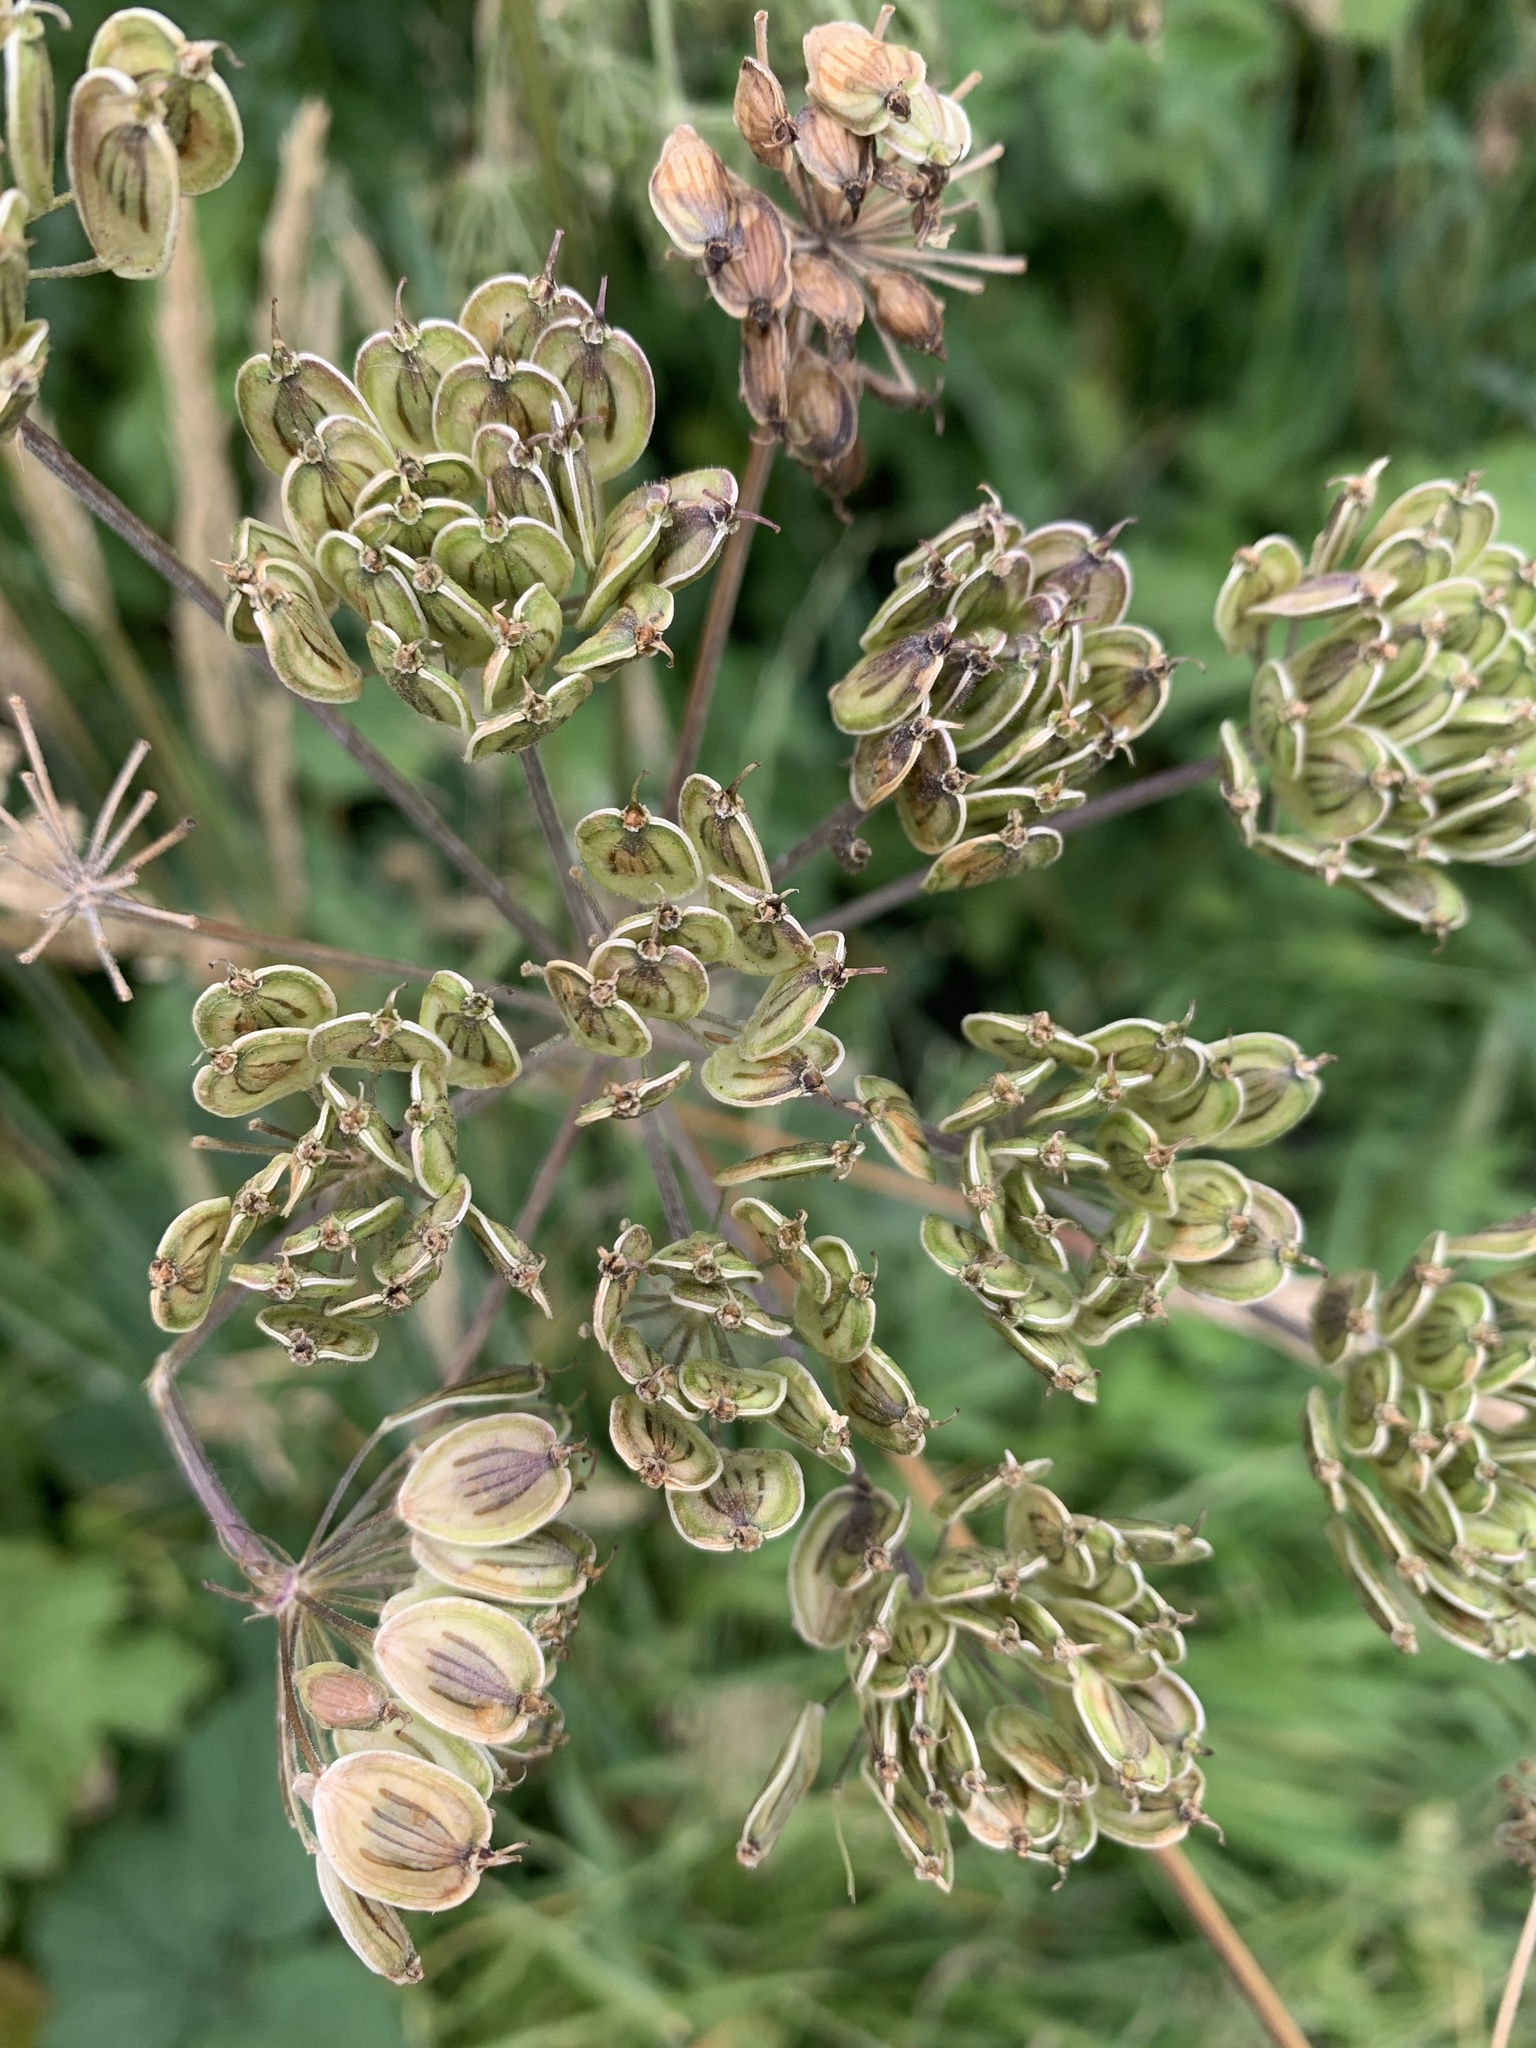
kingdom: Plantae
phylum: Tracheophyta
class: Magnoliopsida
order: Apiales
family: Apiaceae
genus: Heracleum
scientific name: Heracleum sphondylium
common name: Hogweed
